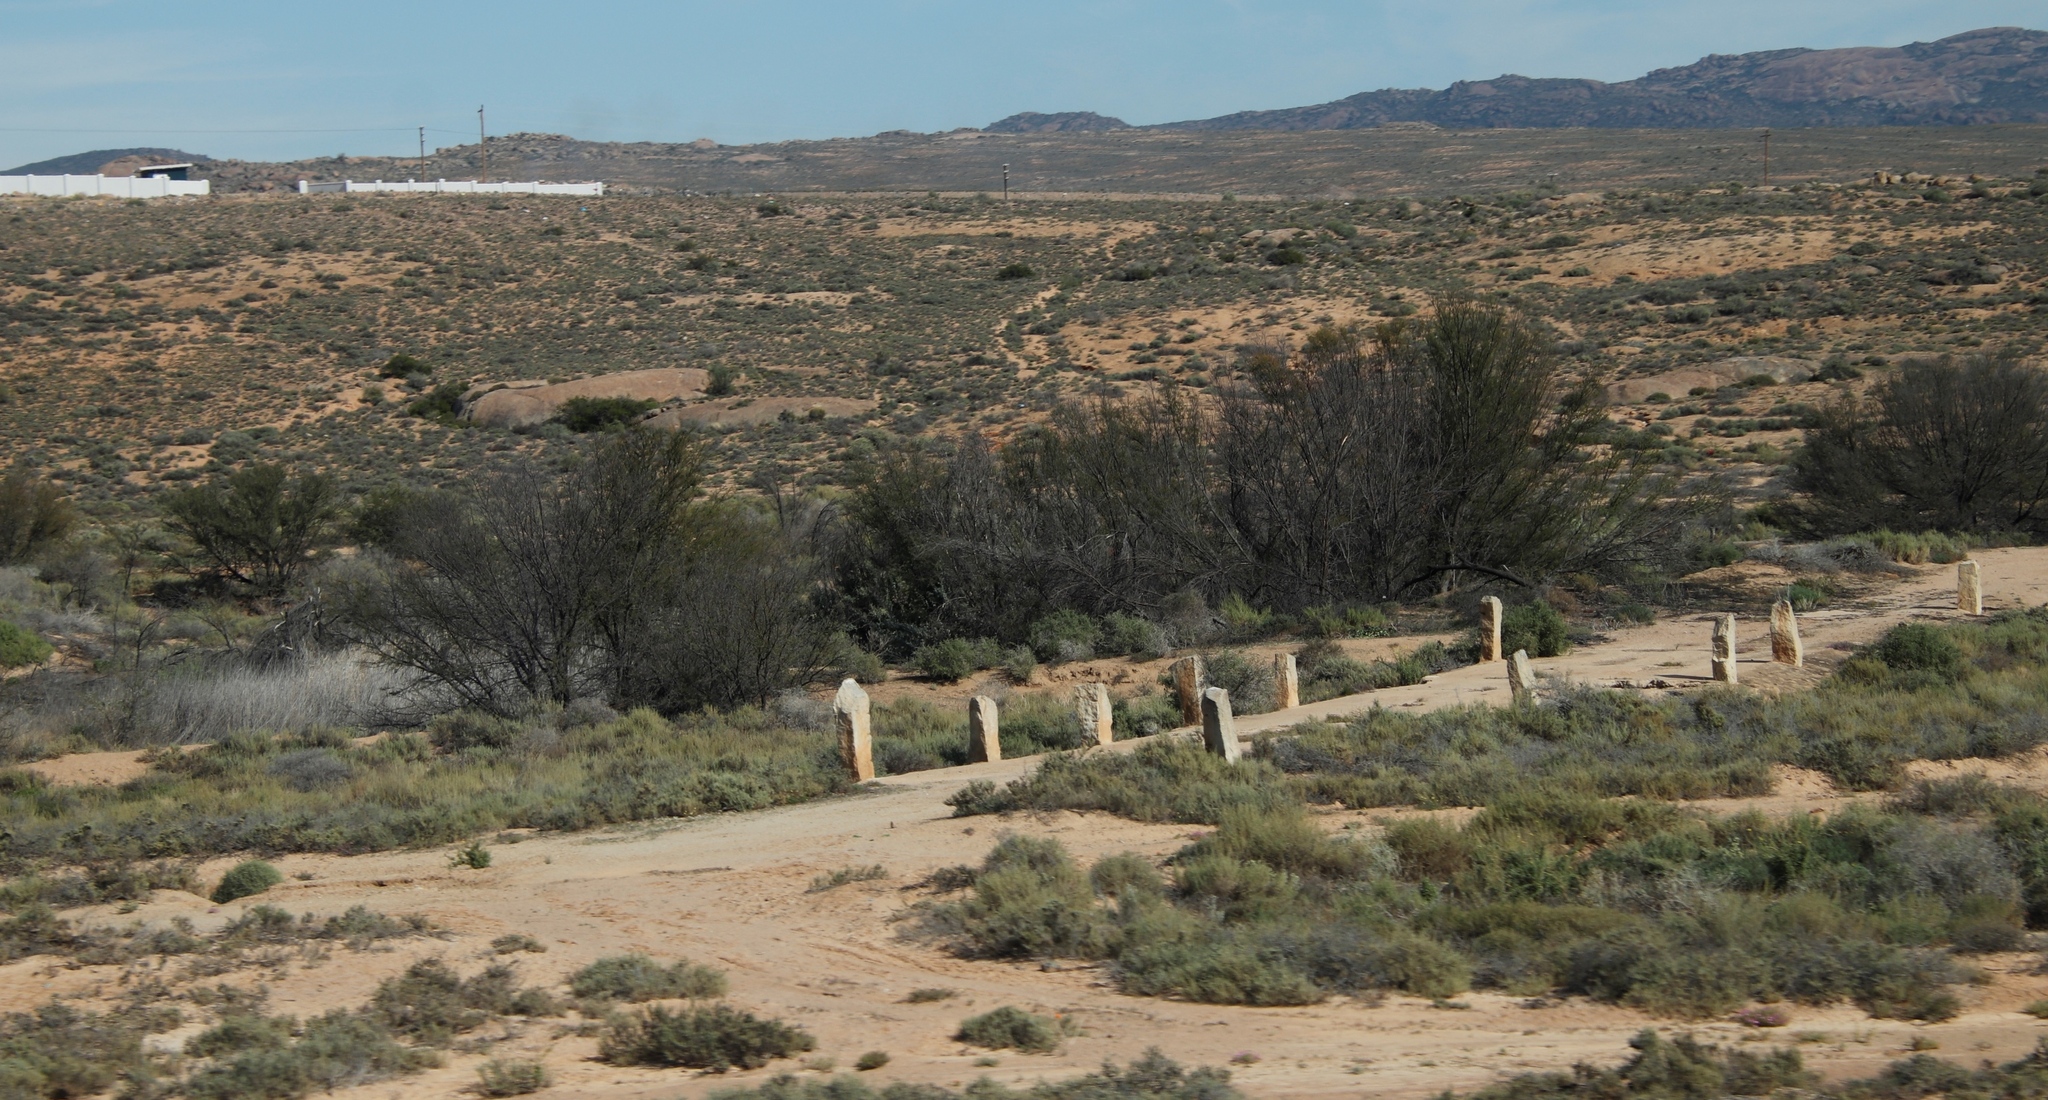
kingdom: Plantae
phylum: Tracheophyta
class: Magnoliopsida
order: Fabales
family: Fabaceae
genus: Vachellia
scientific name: Vachellia karroo
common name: Sweet thorn
